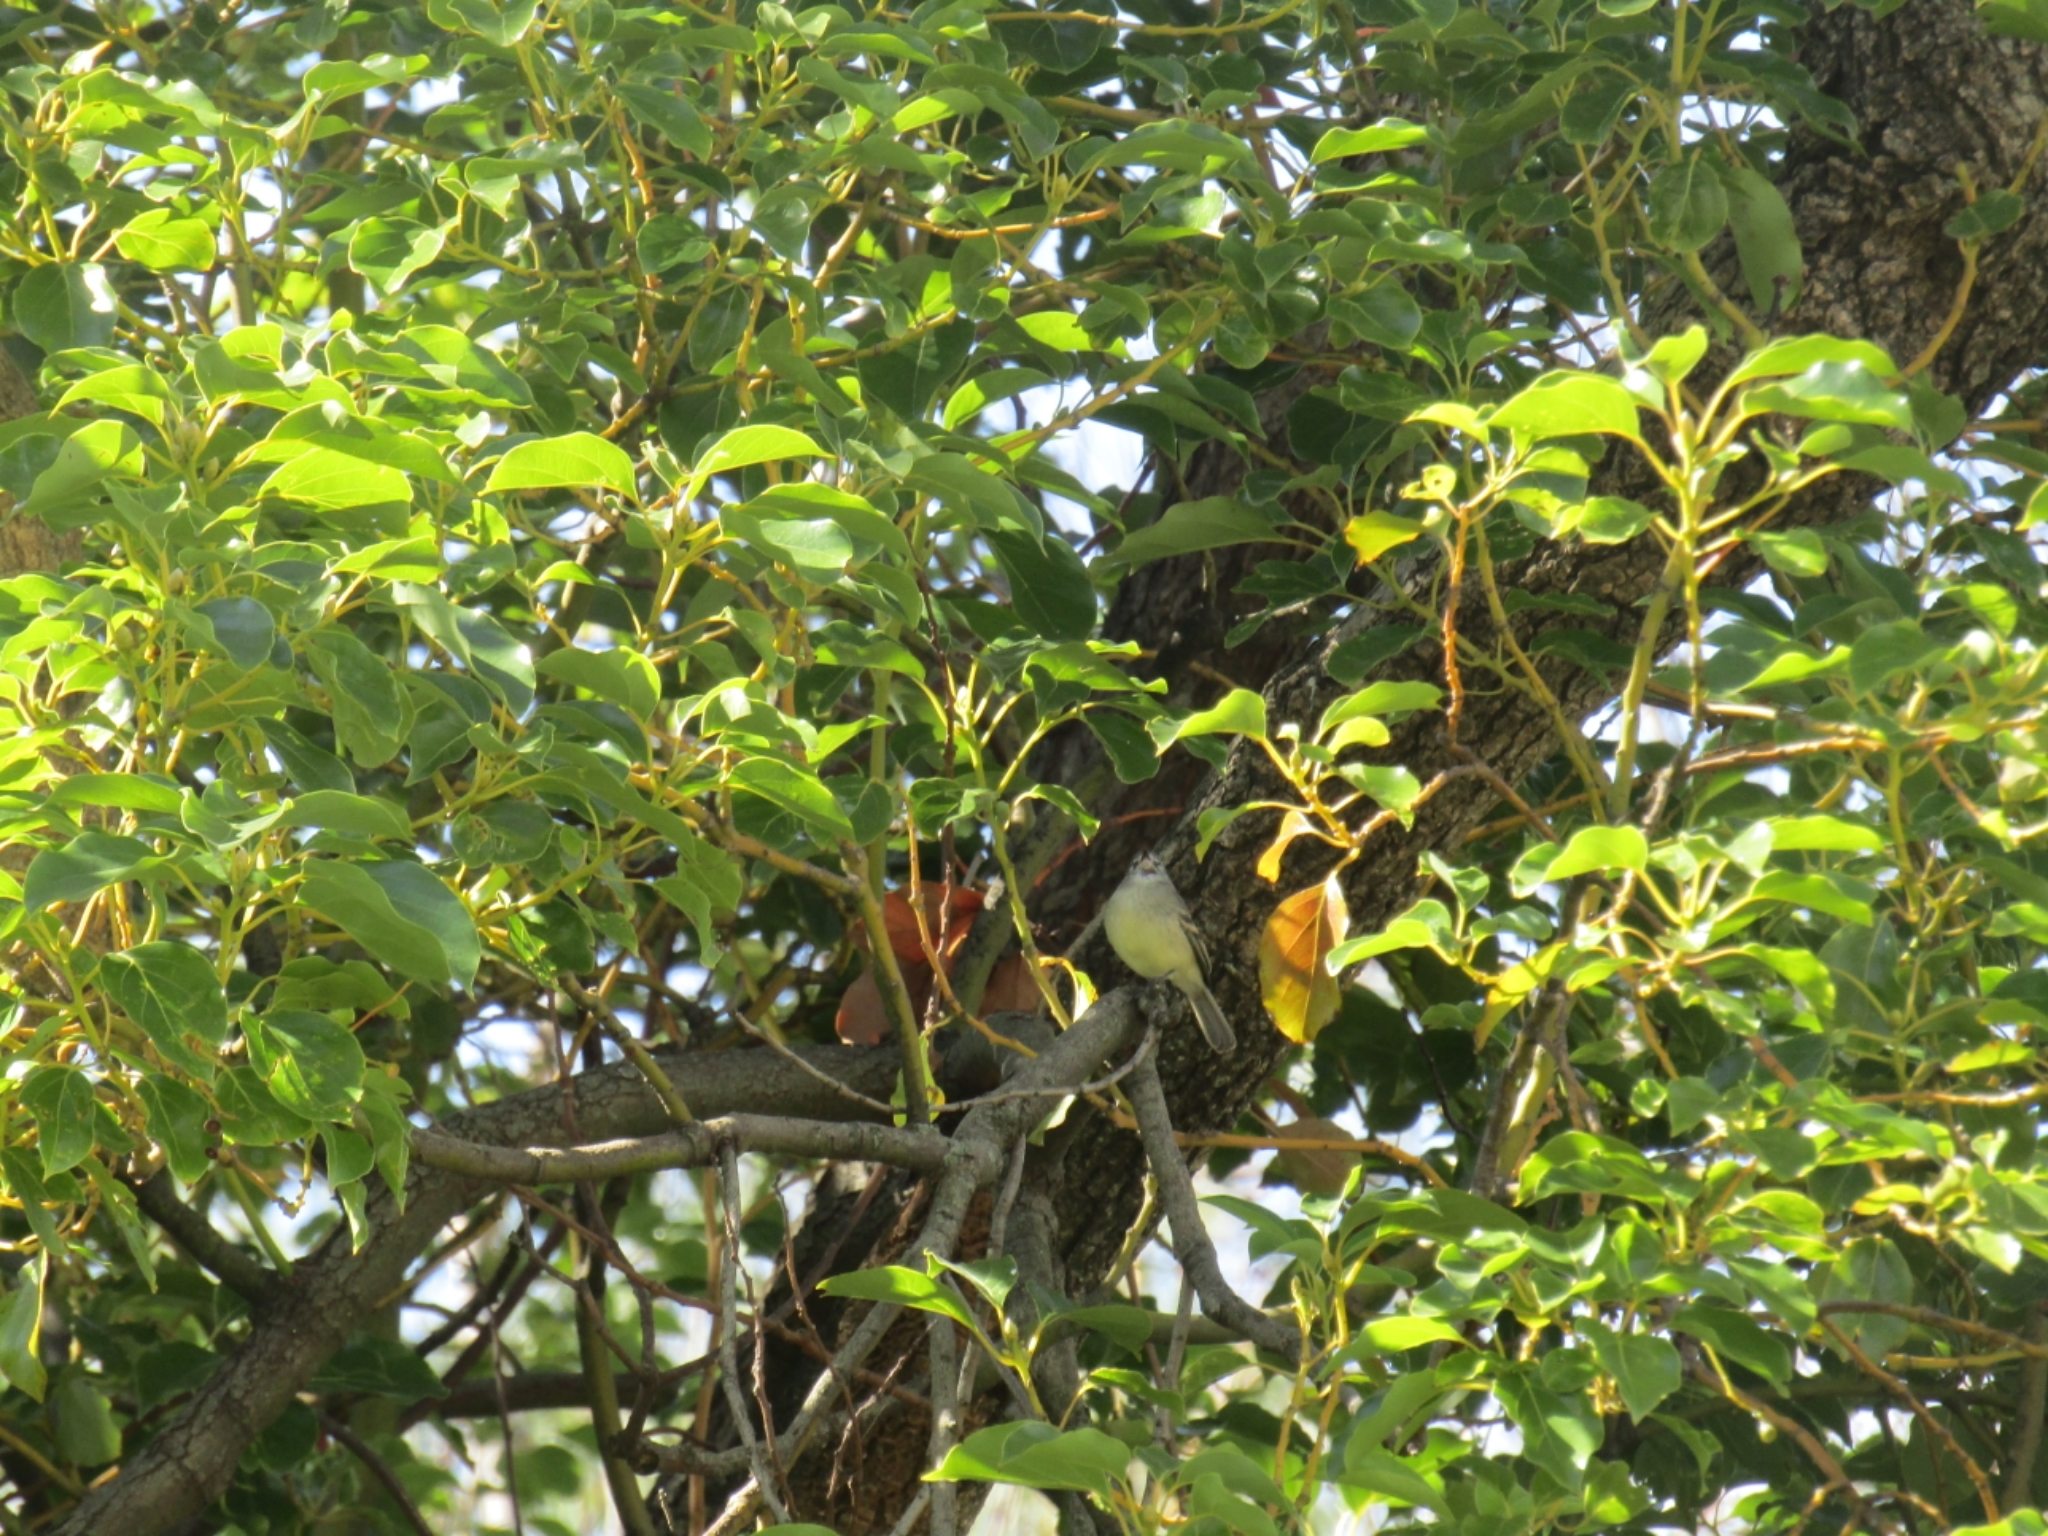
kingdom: Animalia
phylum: Chordata
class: Aves
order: Passeriformes
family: Tyrannidae
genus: Serpophaga
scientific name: Serpophaga subcristata
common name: White-crested tyrannulet
